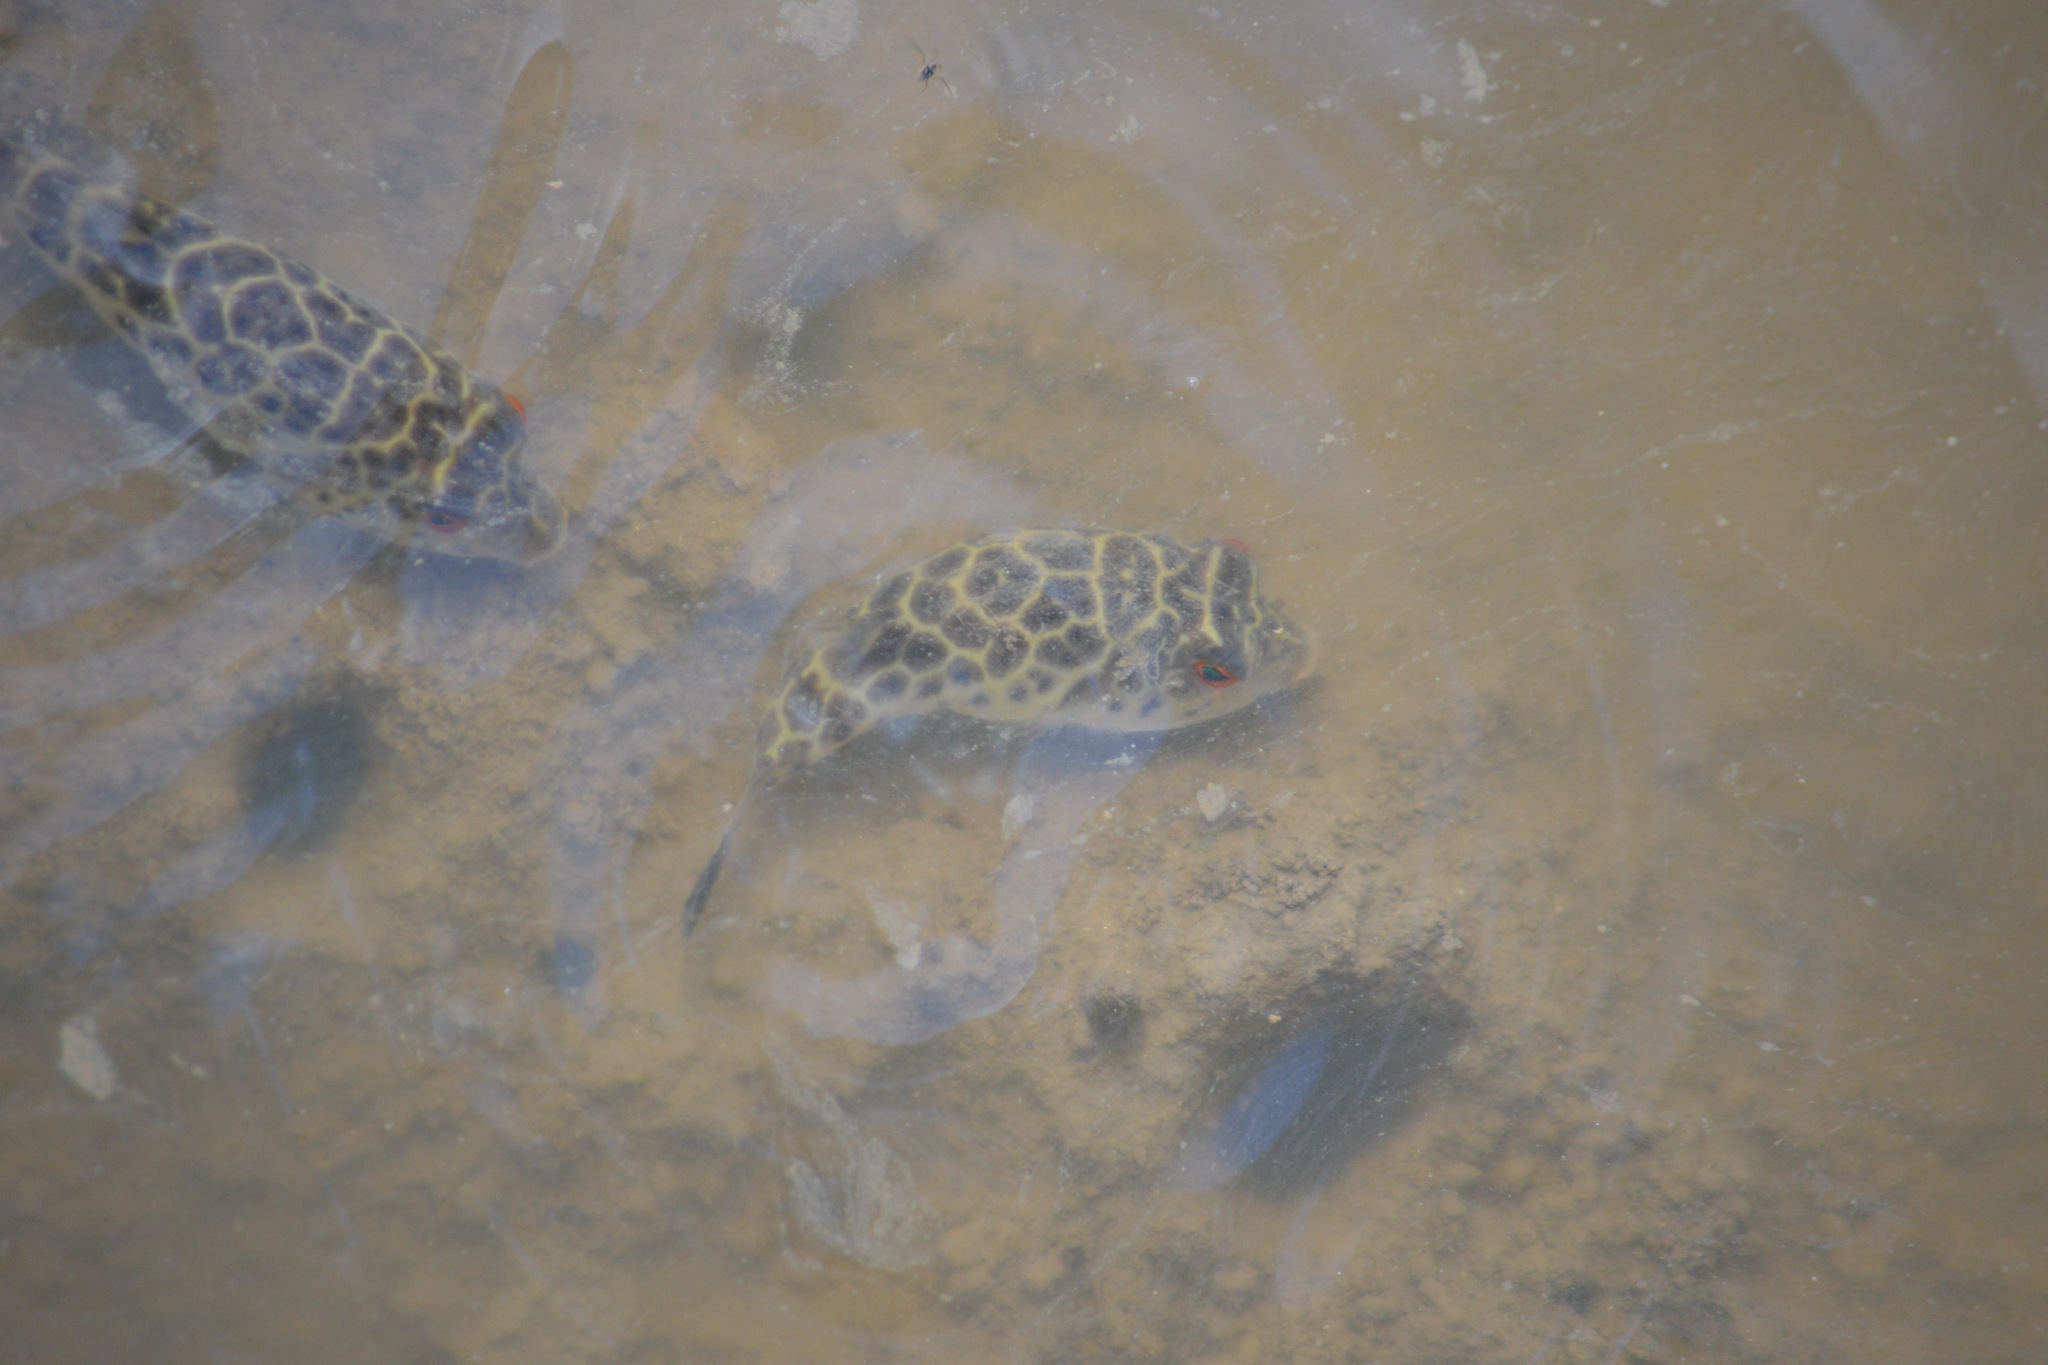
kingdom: Animalia
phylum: Chordata
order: Tetraodontiformes
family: Tetraodontidae
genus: Sphoeroides
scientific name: Sphoeroides testudineus
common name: Checkered puffer
